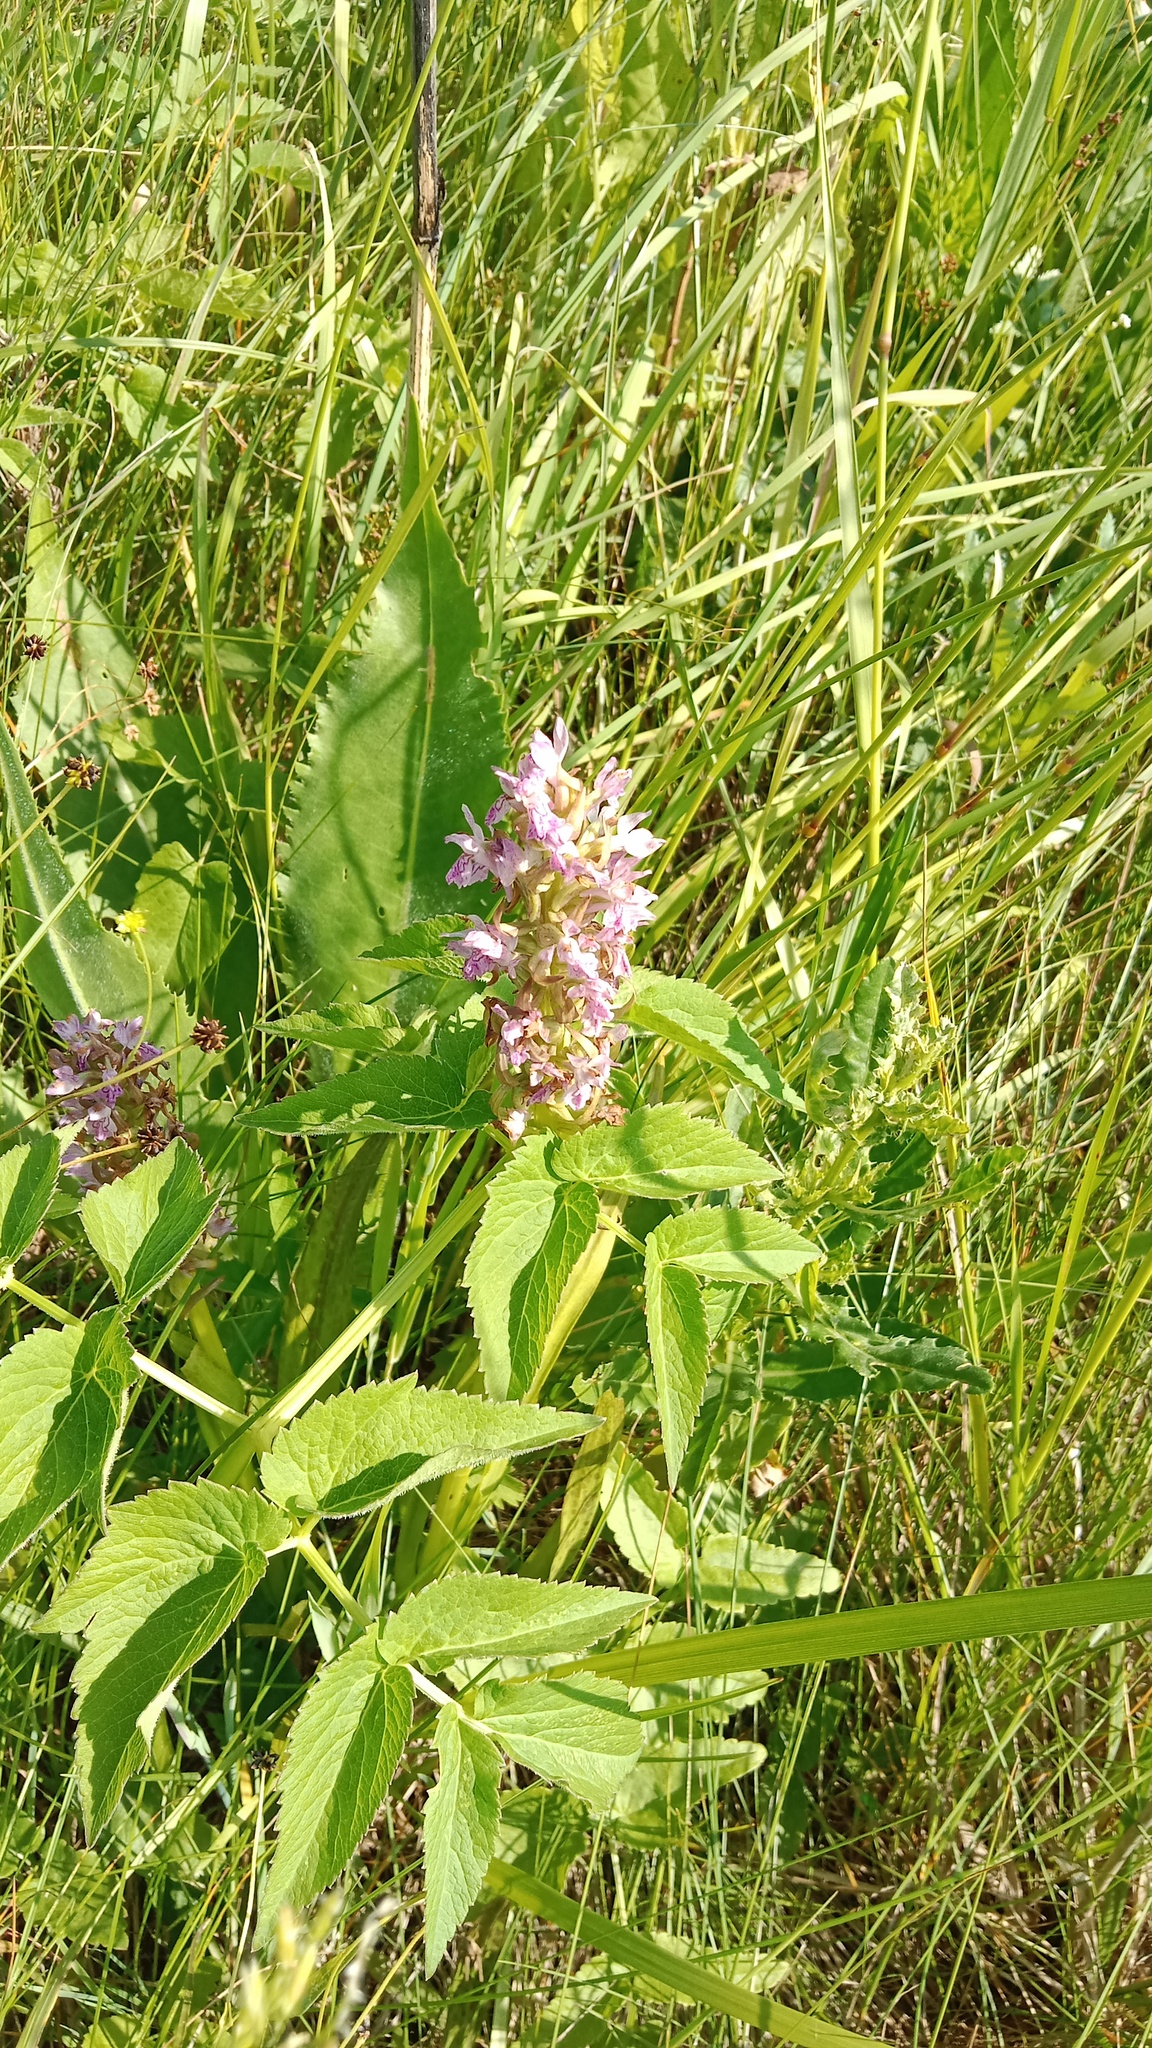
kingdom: Plantae
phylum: Tracheophyta
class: Liliopsida
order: Asparagales
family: Orchidaceae
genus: Dactylorhiza
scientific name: Dactylorhiza incarnata
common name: Early marsh-orchid
